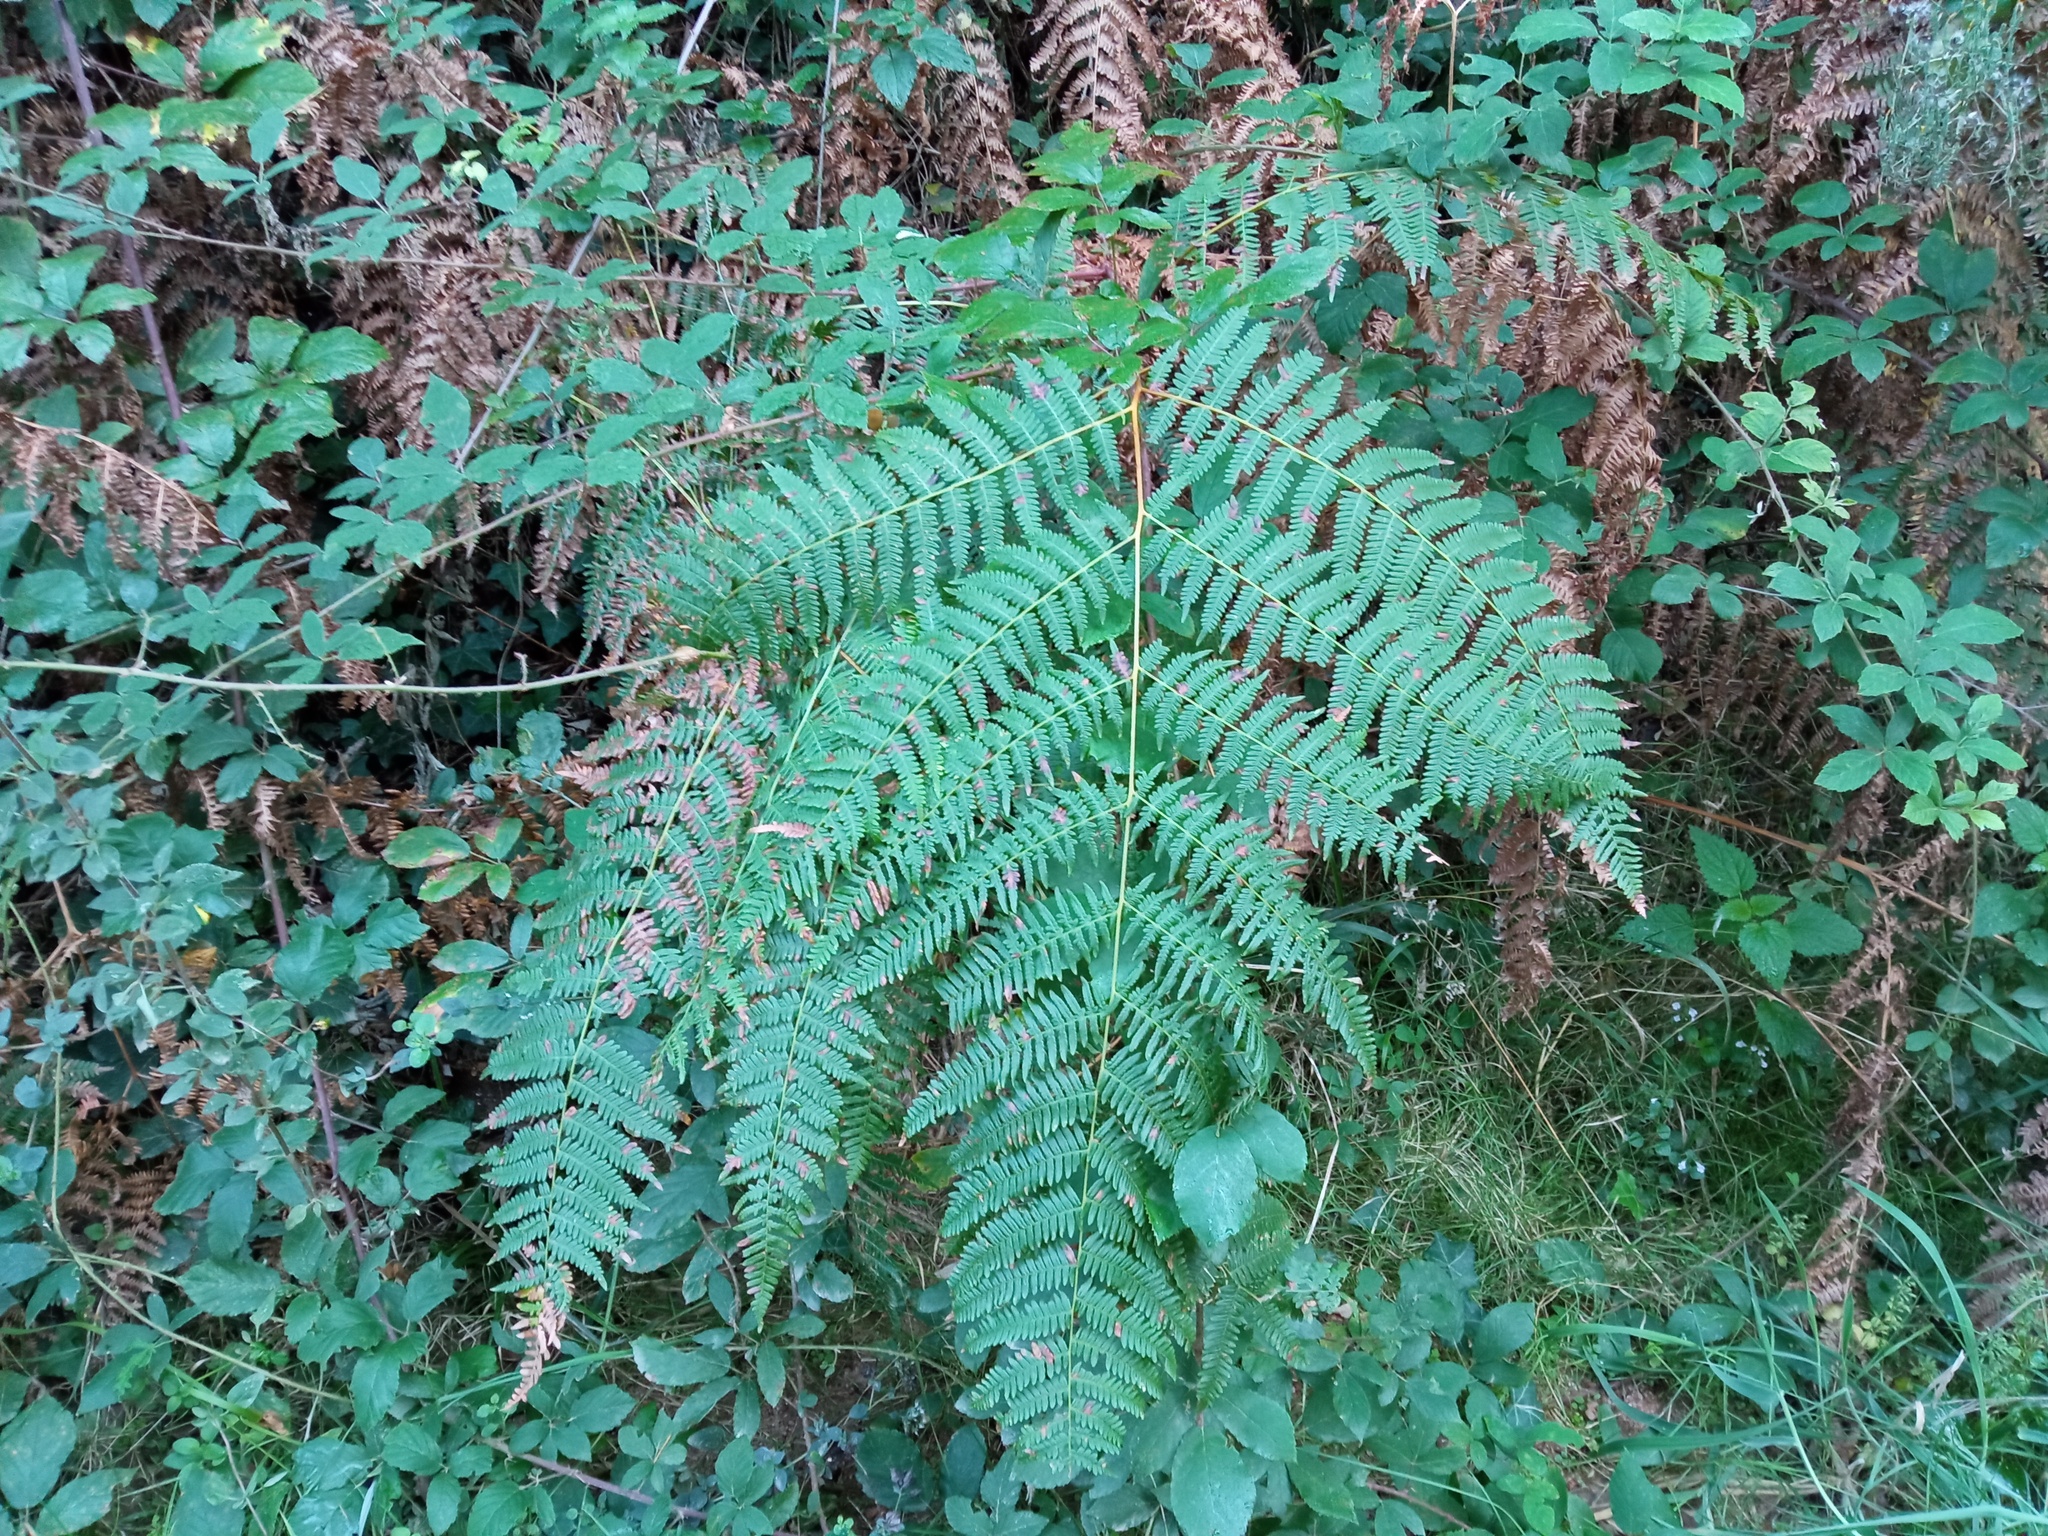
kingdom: Plantae
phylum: Tracheophyta
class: Polypodiopsida
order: Polypodiales
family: Dennstaedtiaceae
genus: Pteridium
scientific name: Pteridium aquilinum
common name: Bracken
